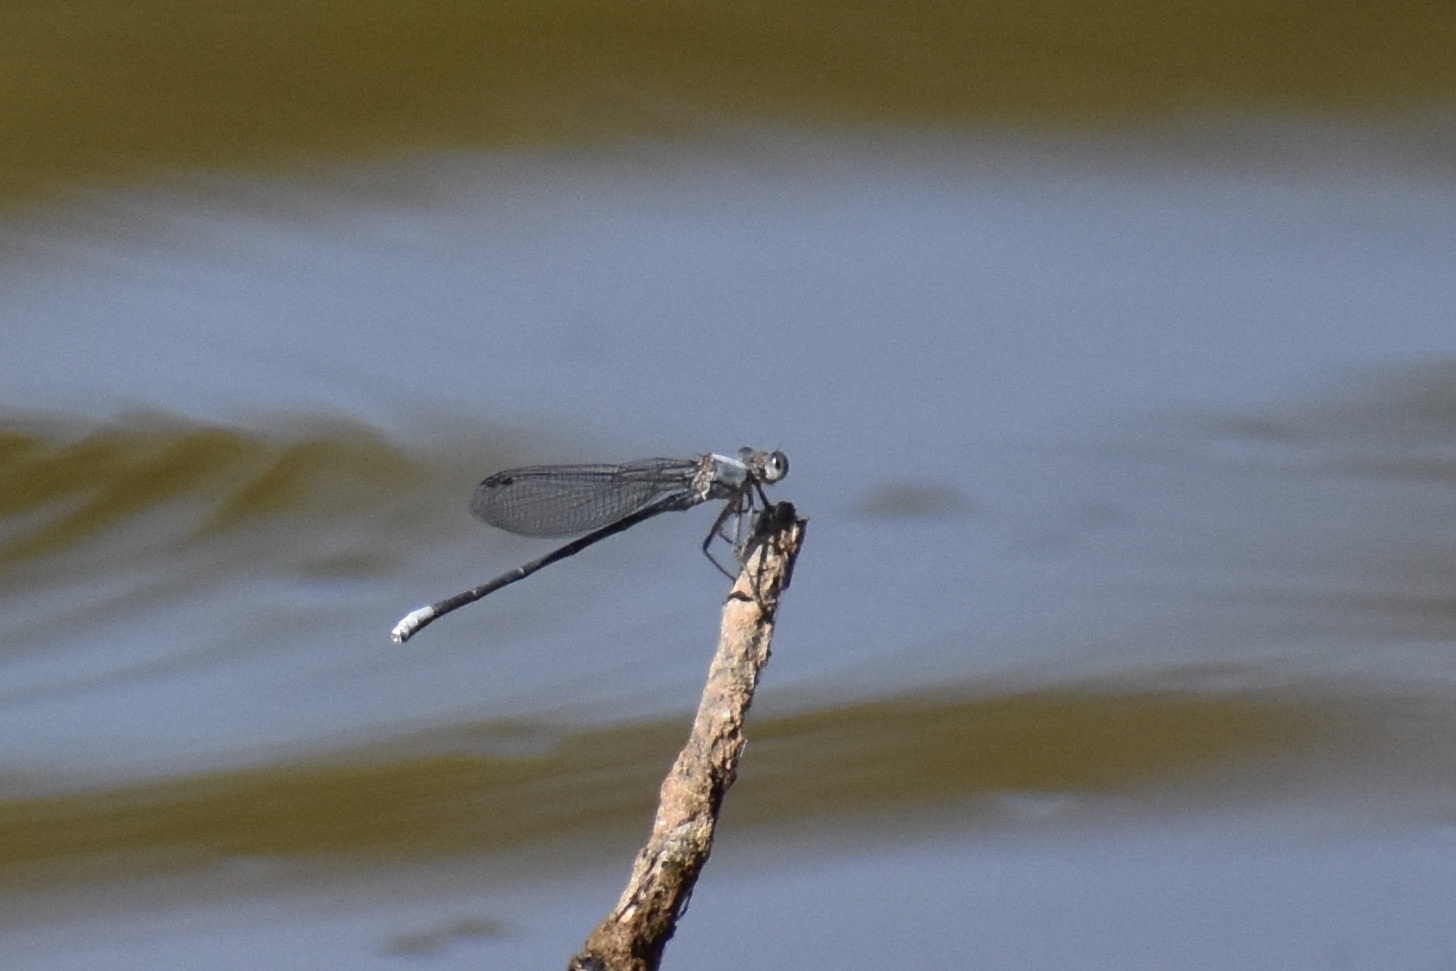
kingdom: Animalia
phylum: Arthropoda
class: Insecta
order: Odonata
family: Coenagrionidae
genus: Argia
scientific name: Argia moesta
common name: Powdered dancer
